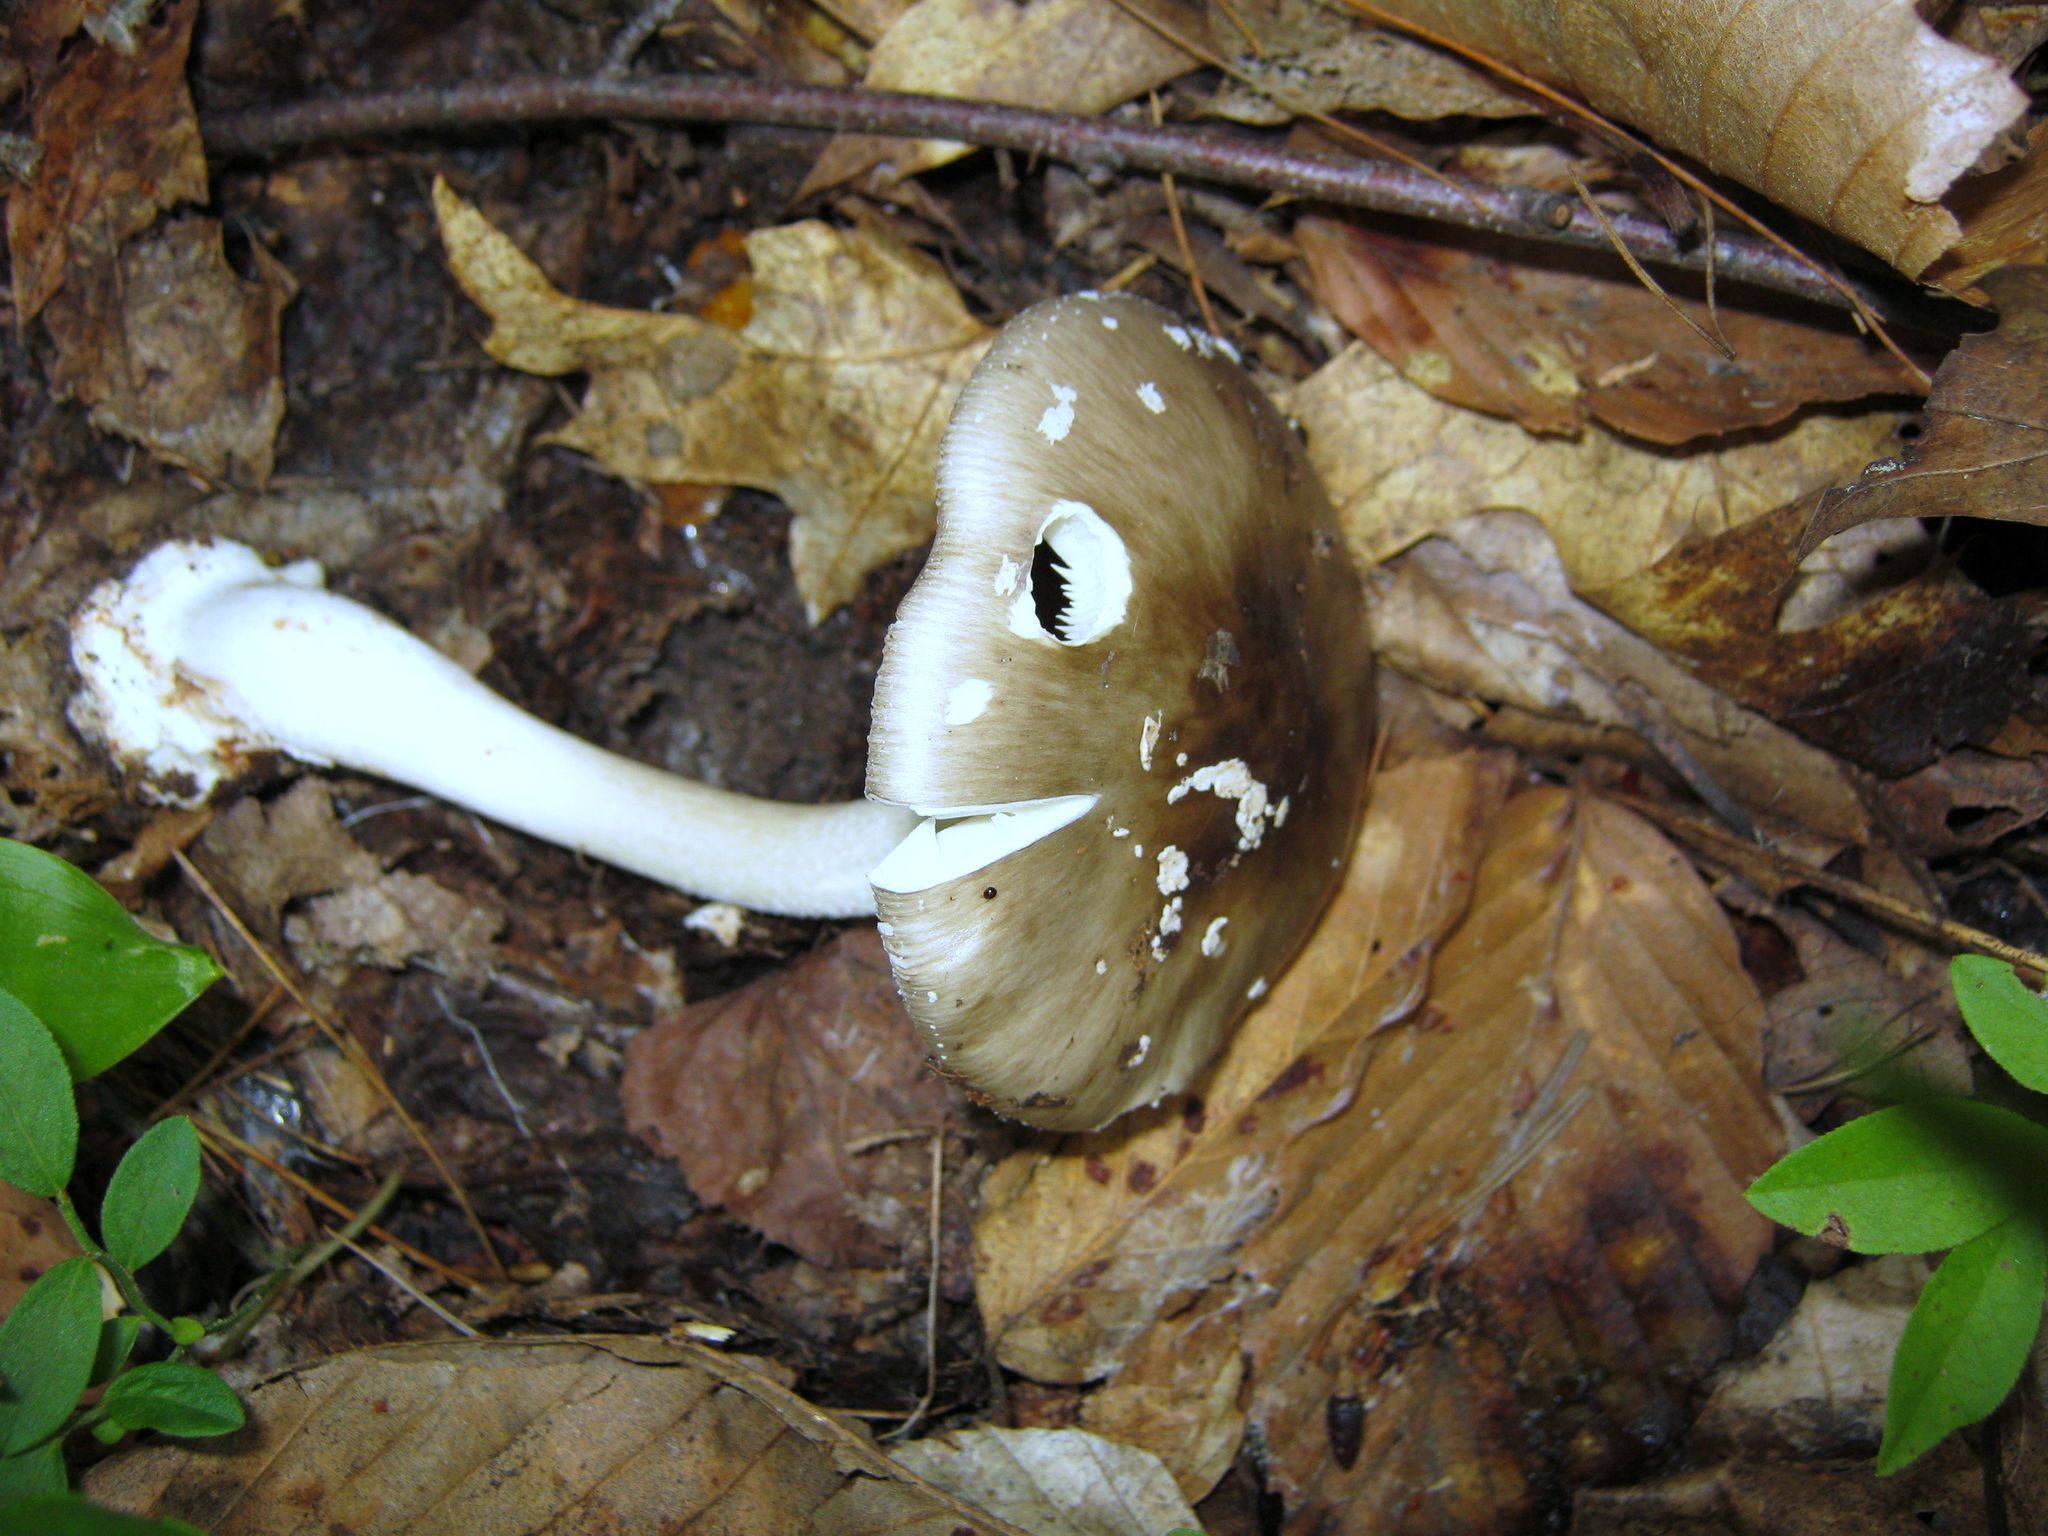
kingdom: Fungi
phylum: Basidiomycota
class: Agaricomycetes
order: Agaricales
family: Amanitaceae
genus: Amanita
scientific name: Amanita brunnescens
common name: Brown american star-footed amanita
